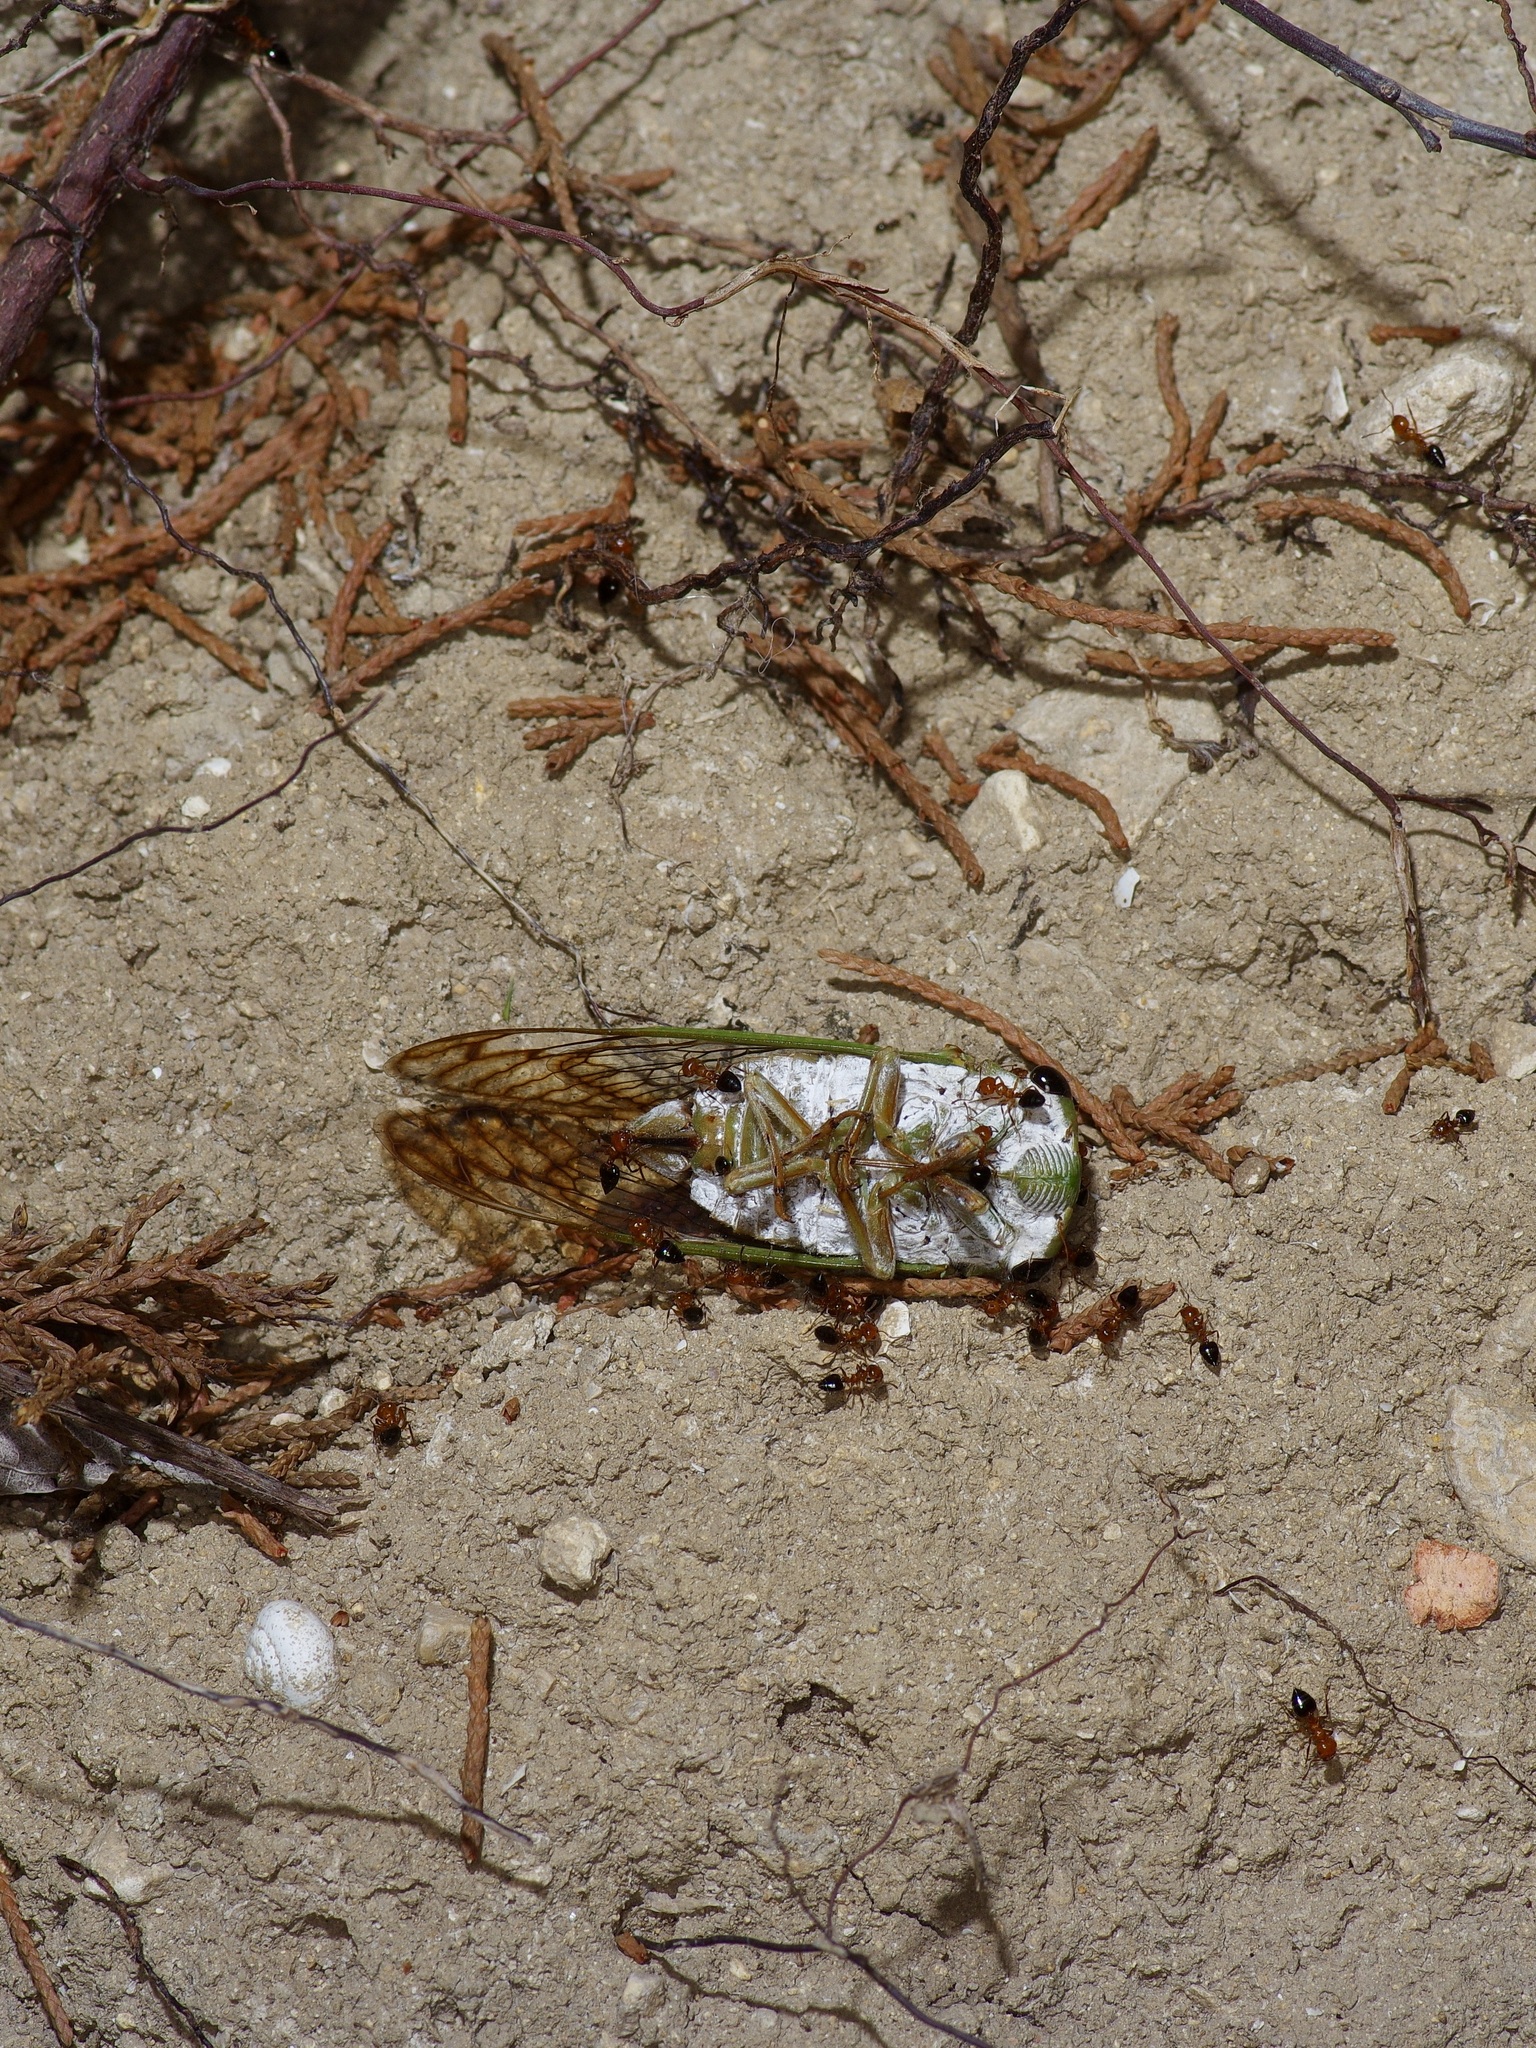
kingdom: Animalia
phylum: Arthropoda
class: Insecta
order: Hemiptera
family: Cicadidae
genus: Neotibicen
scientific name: Neotibicen superbus
